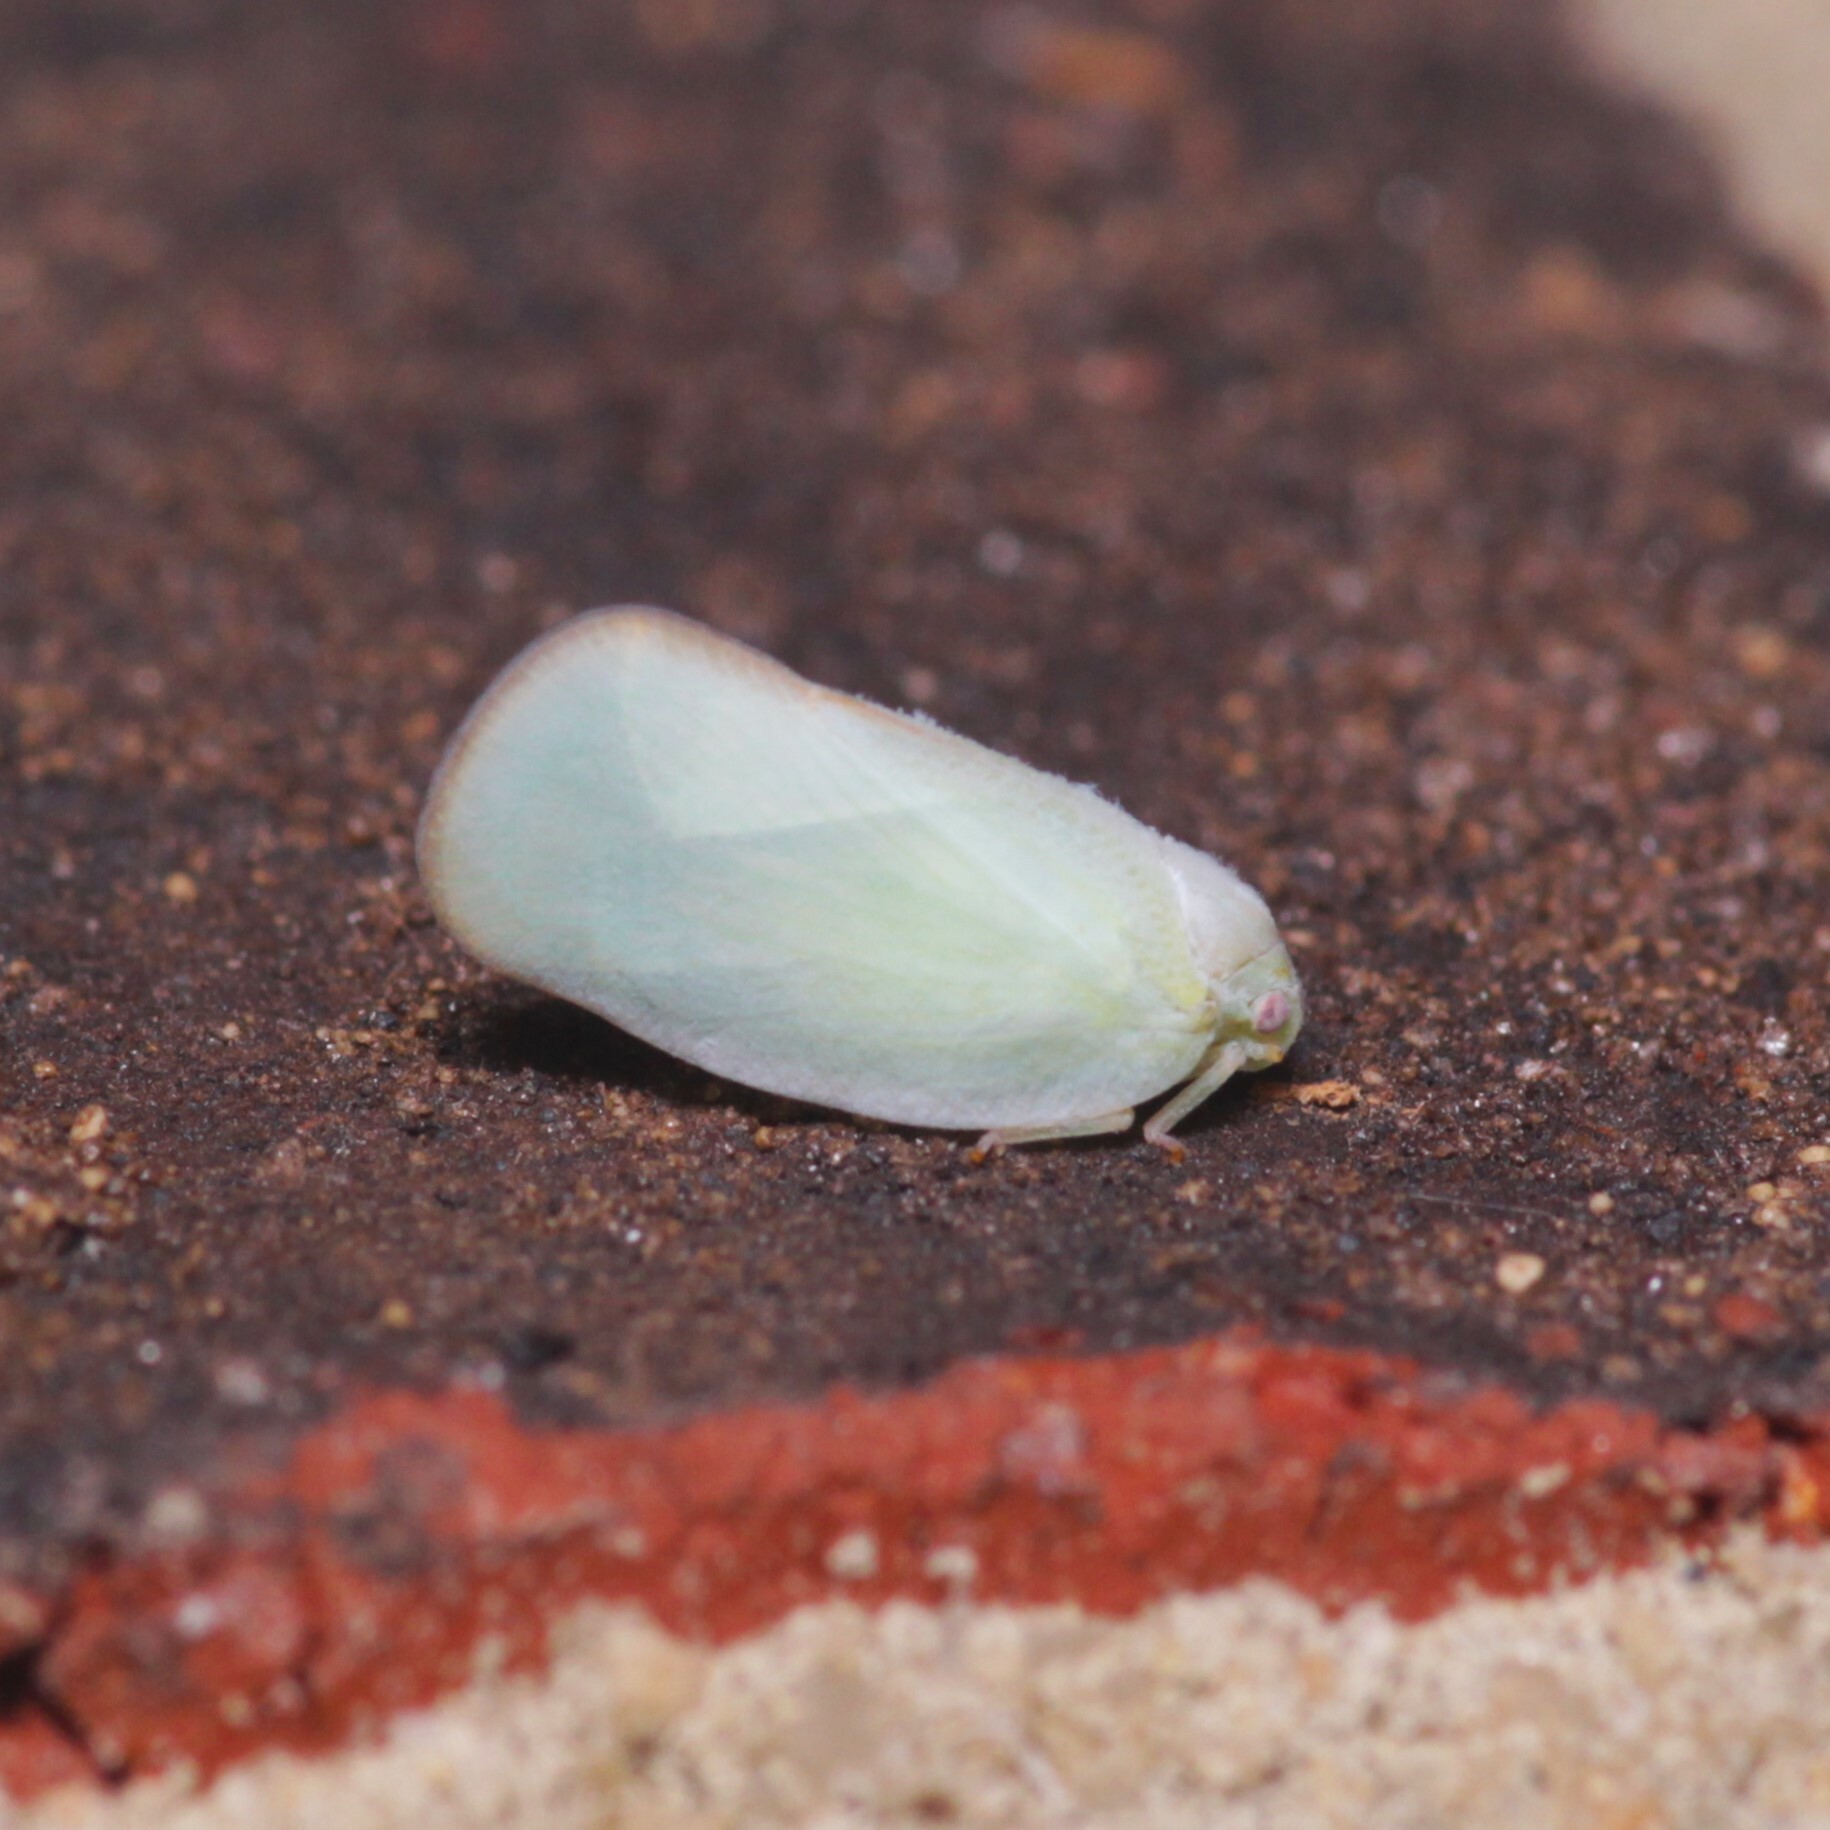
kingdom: Animalia
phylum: Arthropoda
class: Insecta
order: Hemiptera
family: Flatidae
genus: Ormenoides
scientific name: Ormenoides venusta
